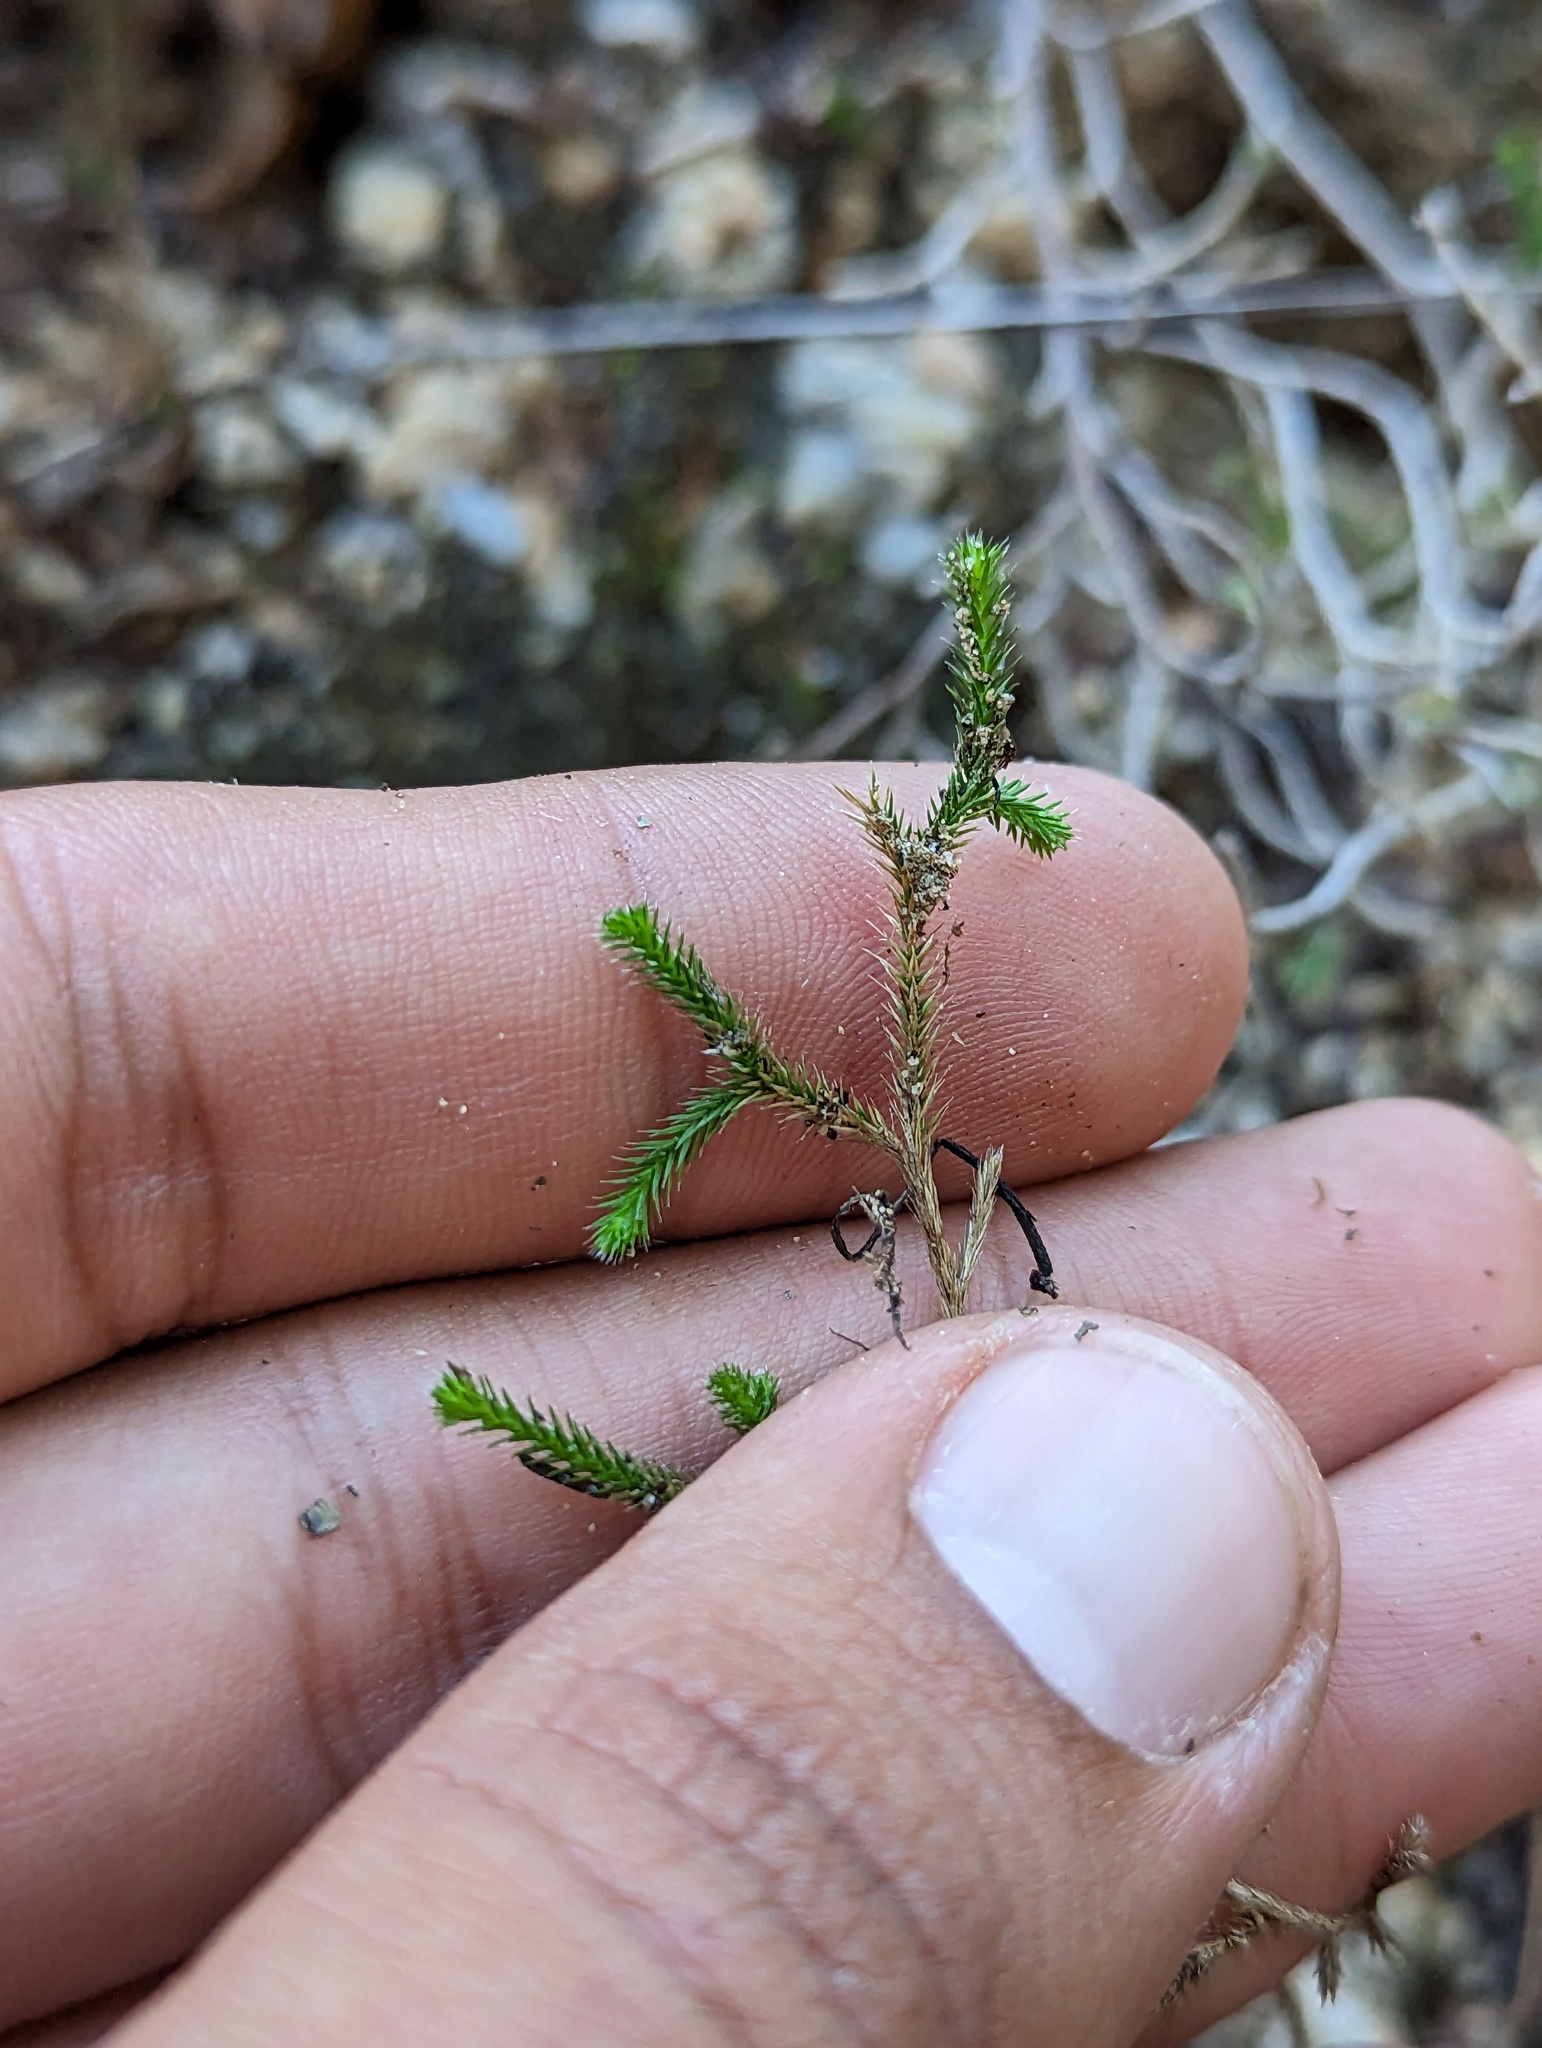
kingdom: Plantae
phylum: Tracheophyta
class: Lycopodiopsida
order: Selaginellales
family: Selaginellaceae
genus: Selaginella
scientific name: Selaginella bigelovii
